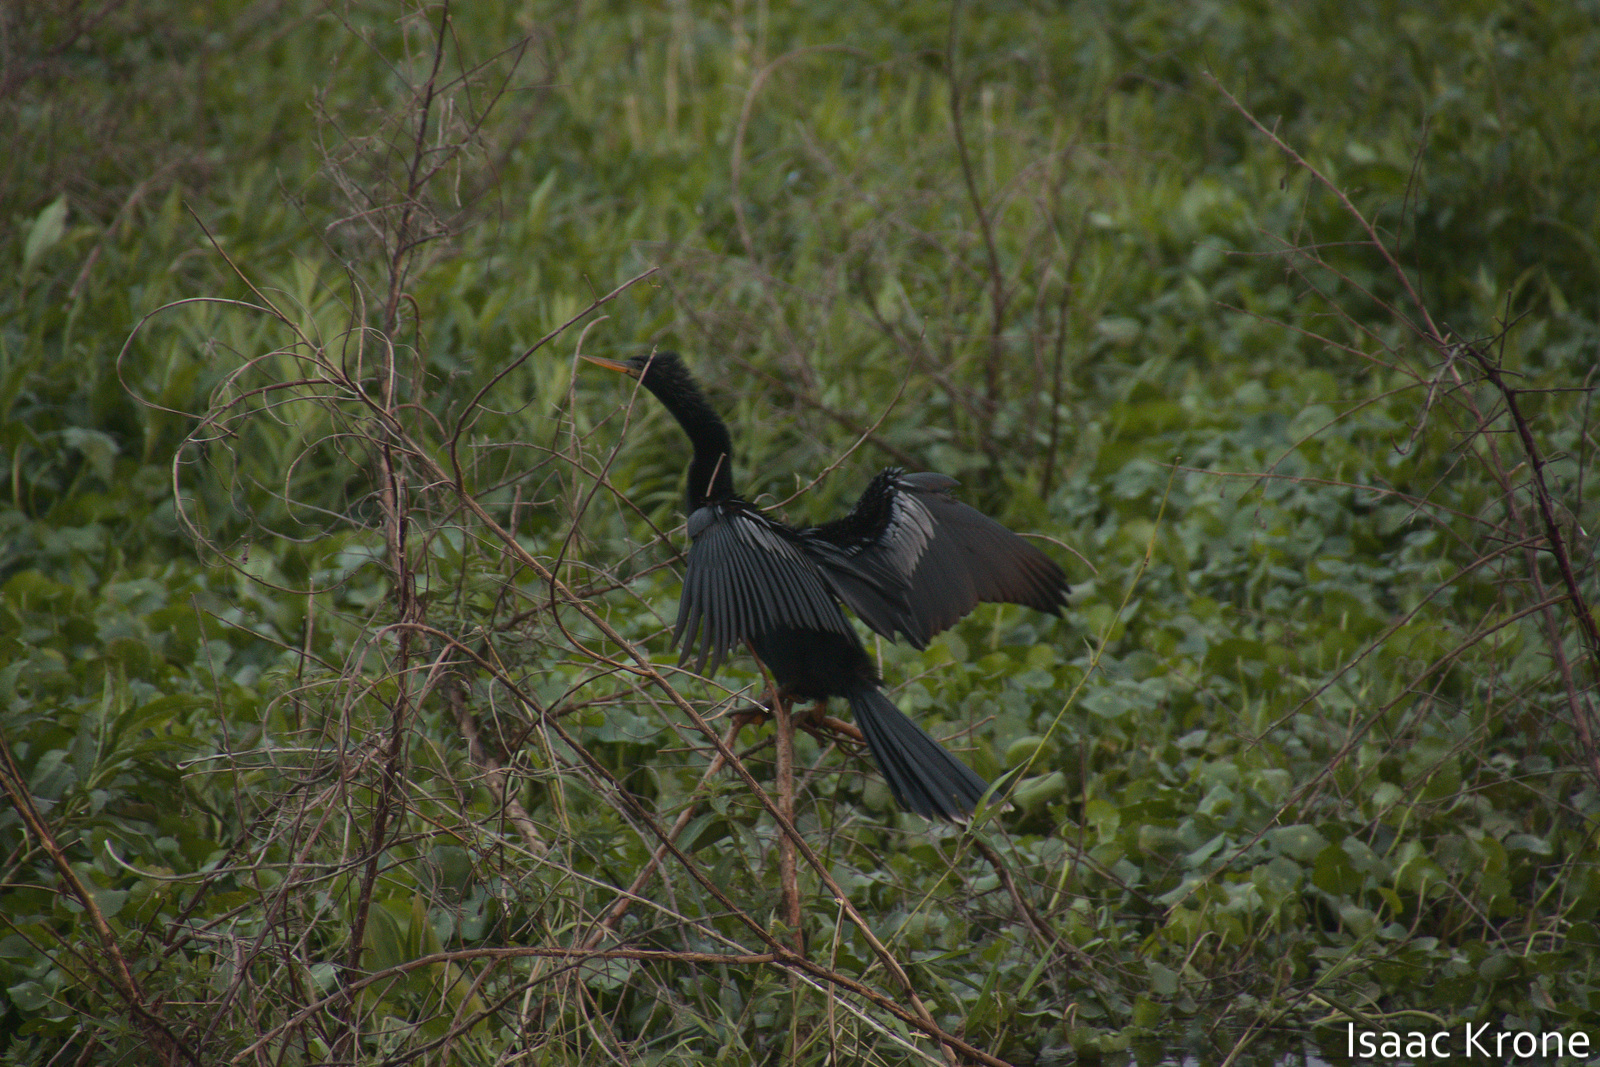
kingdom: Animalia
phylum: Chordata
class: Aves
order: Suliformes
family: Anhingidae
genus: Anhinga
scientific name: Anhinga anhinga
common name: Anhinga
